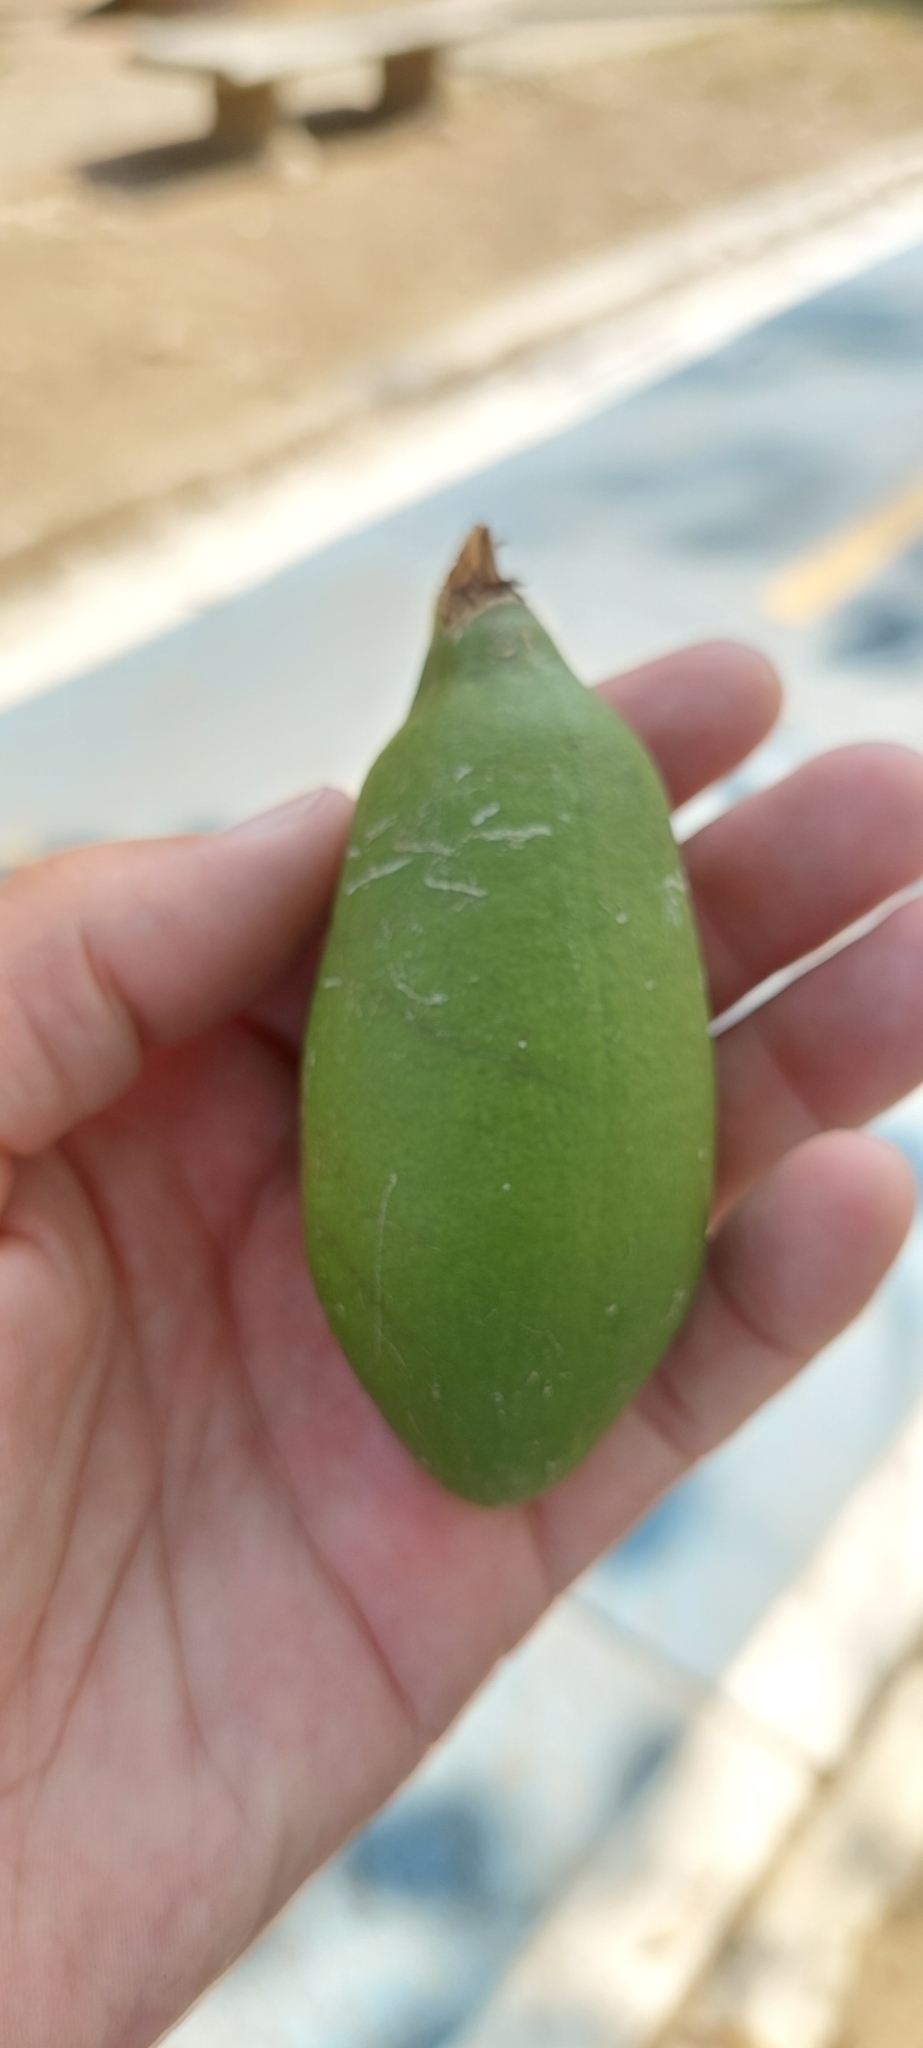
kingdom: Plantae
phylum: Tracheophyta
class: Magnoliopsida
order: Malvales
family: Malvaceae
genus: Ceiba
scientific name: Ceiba pentandra
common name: Kapok
